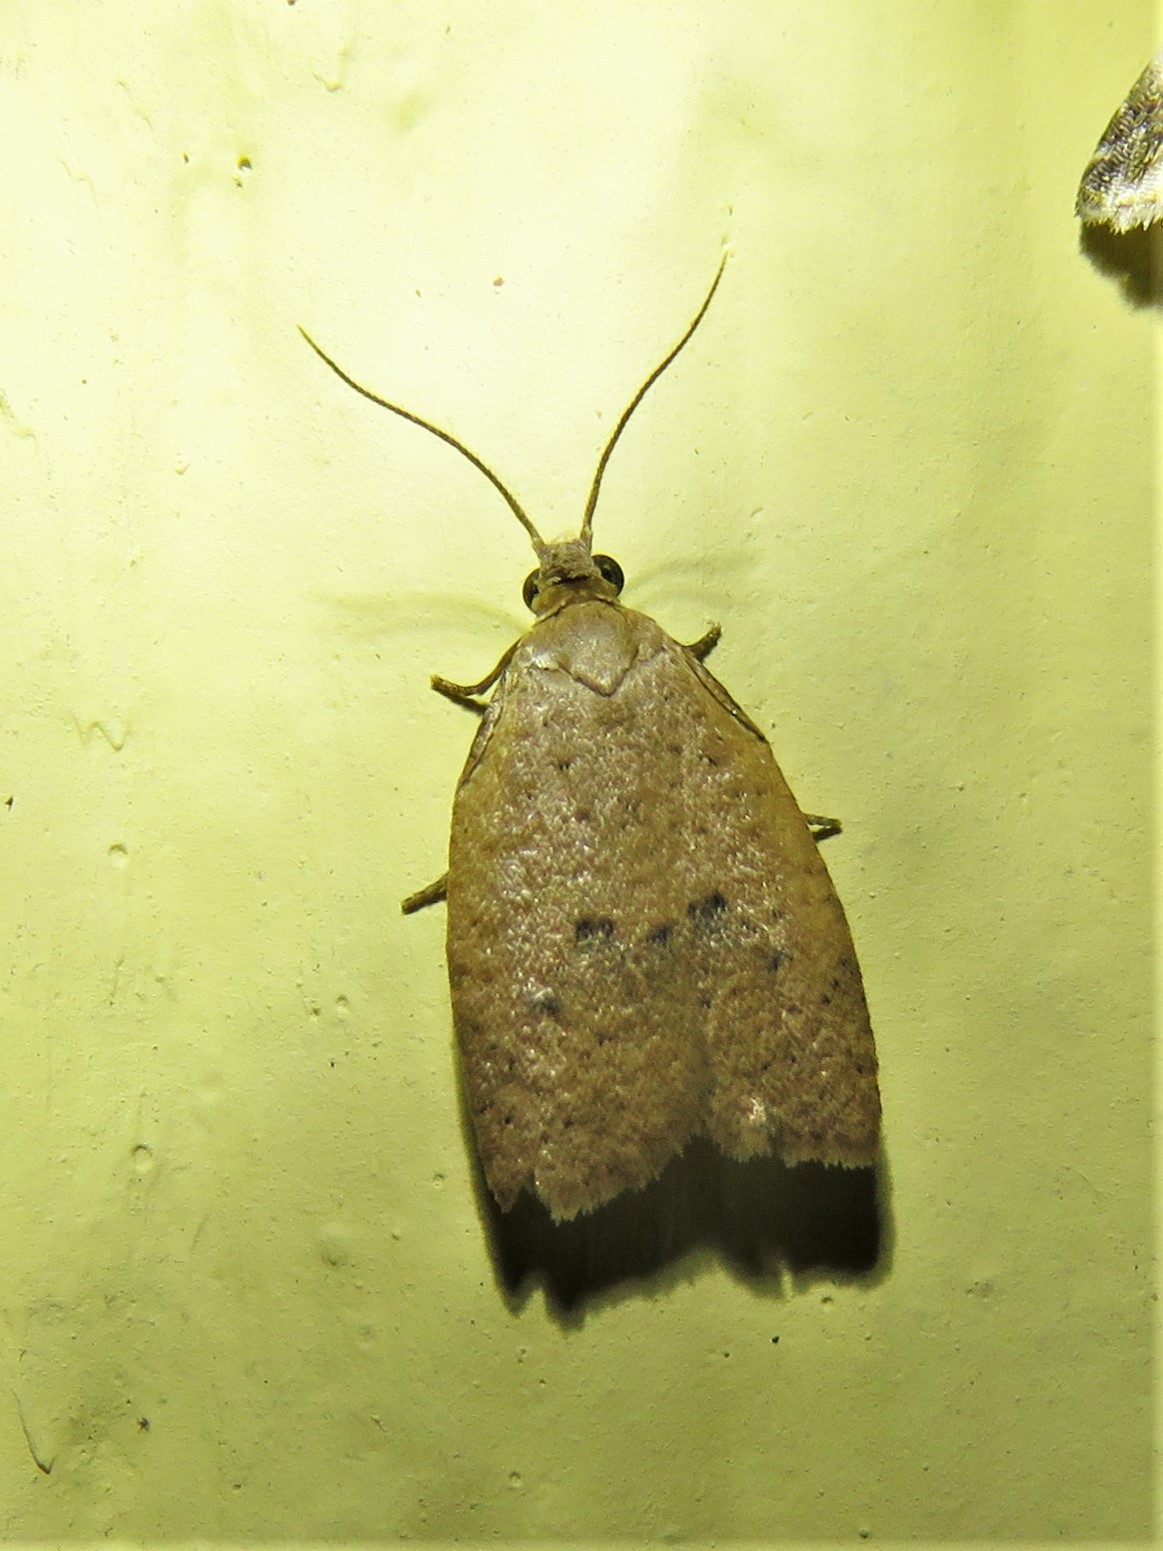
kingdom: Animalia
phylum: Arthropoda
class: Insecta
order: Lepidoptera
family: Tortricidae
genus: Sparganothoides
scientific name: Sparganothoides lentiginosana
